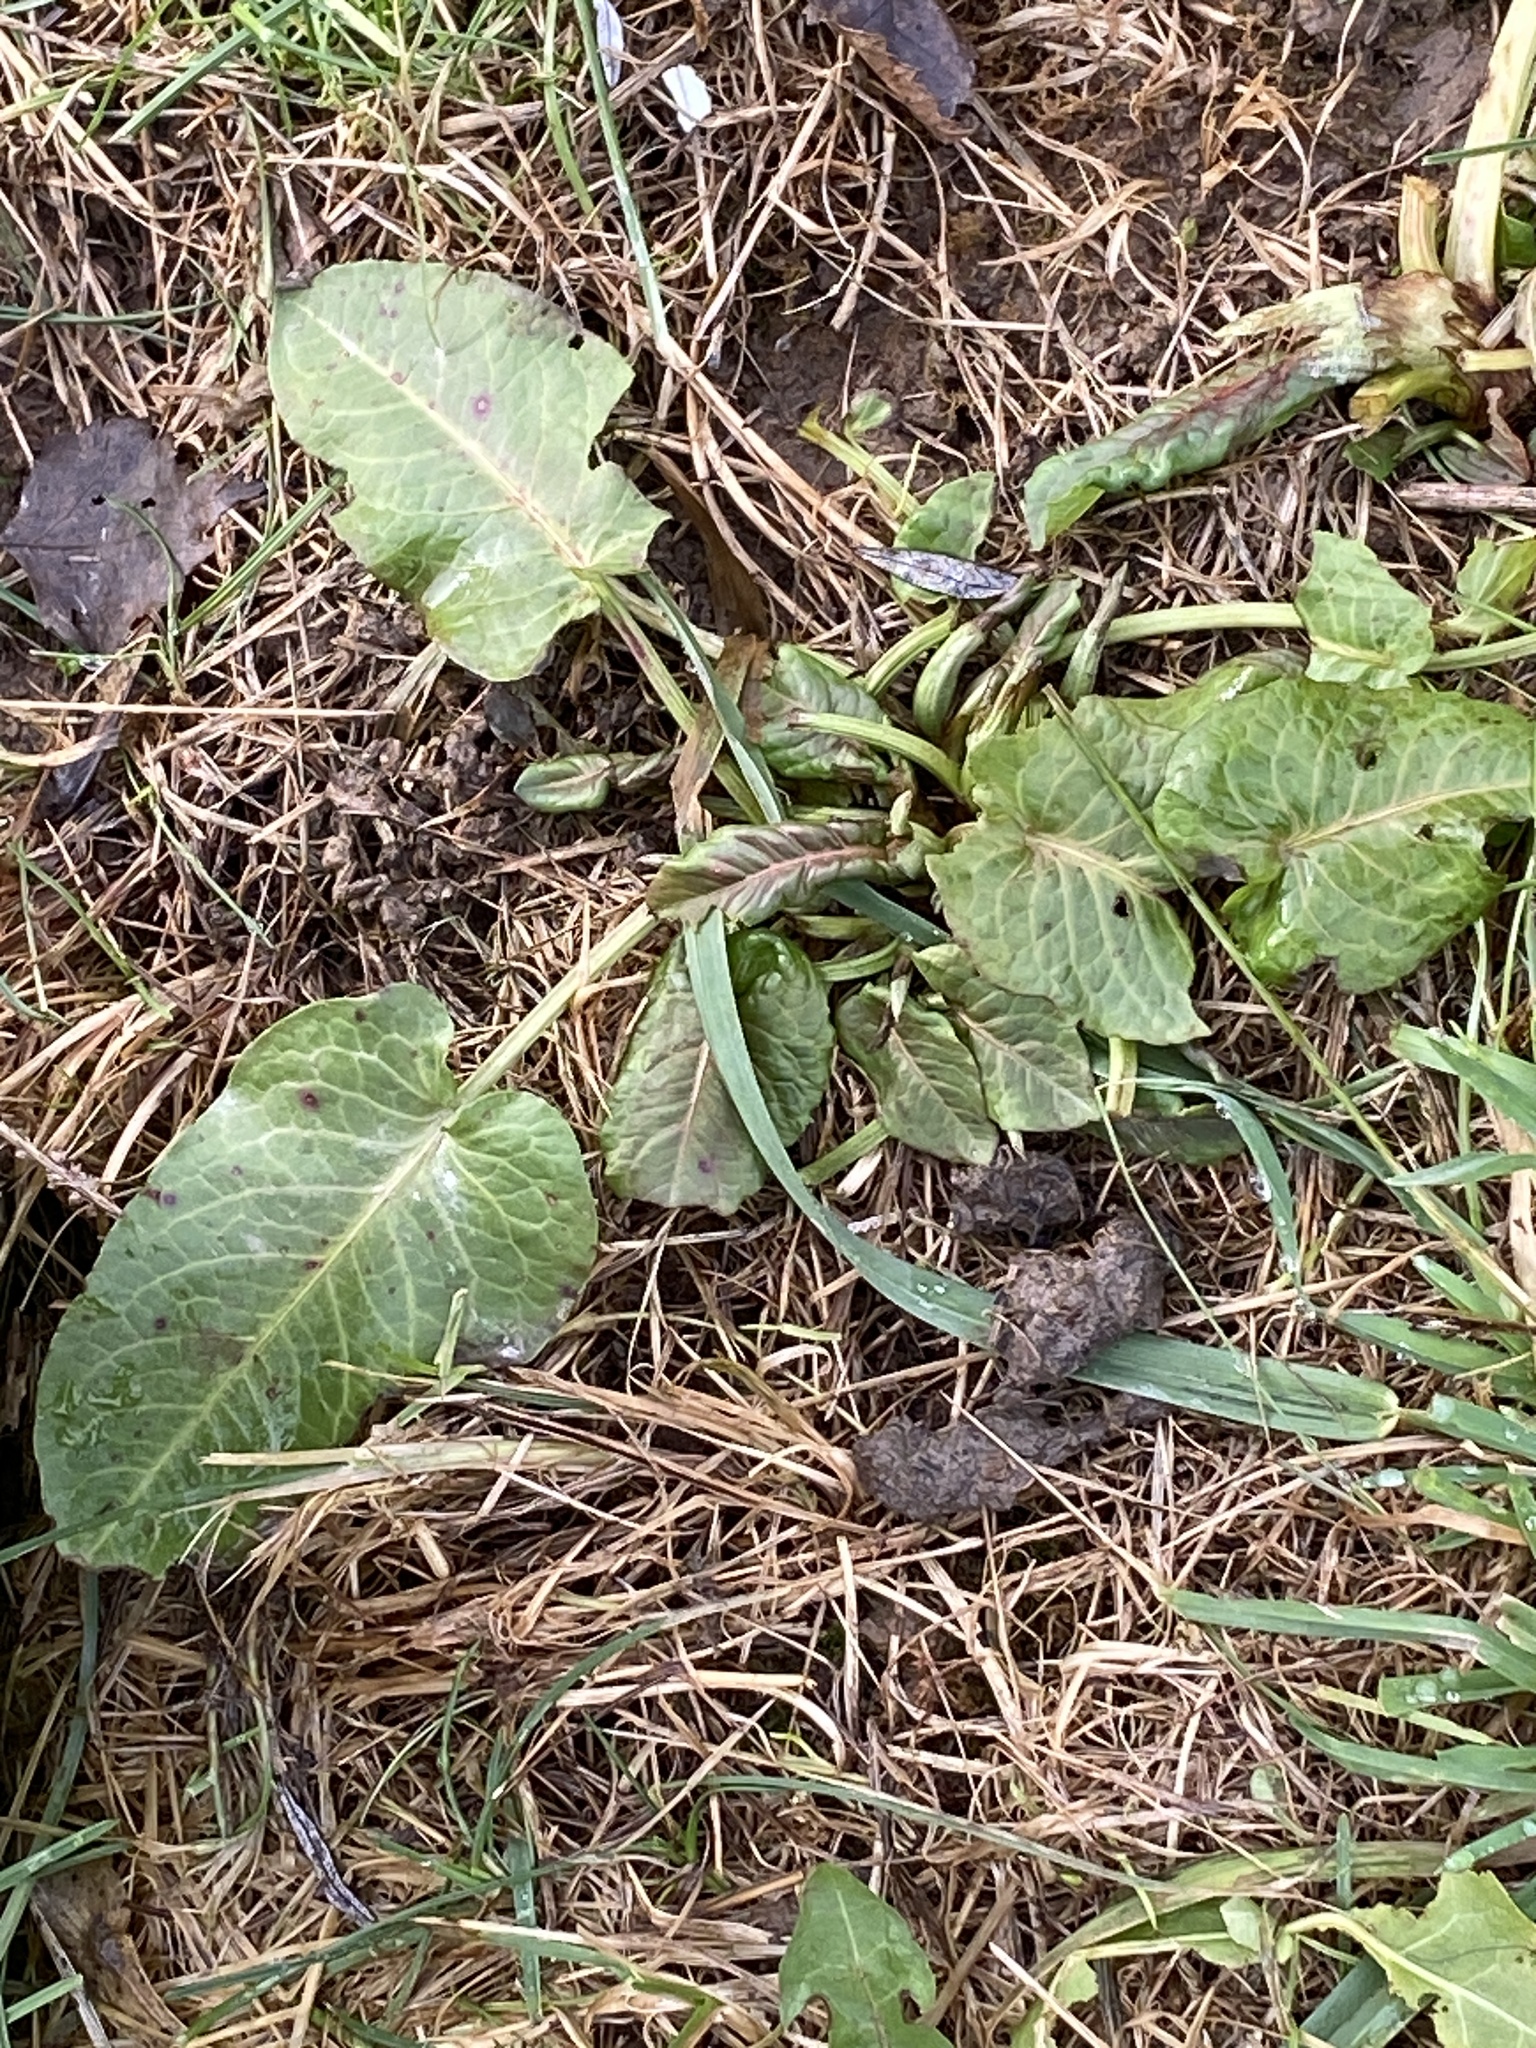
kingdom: Plantae
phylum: Tracheophyta
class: Magnoliopsida
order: Caryophyllales
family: Polygonaceae
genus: Rumex
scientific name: Rumex obtusifolius
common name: Bitter dock
